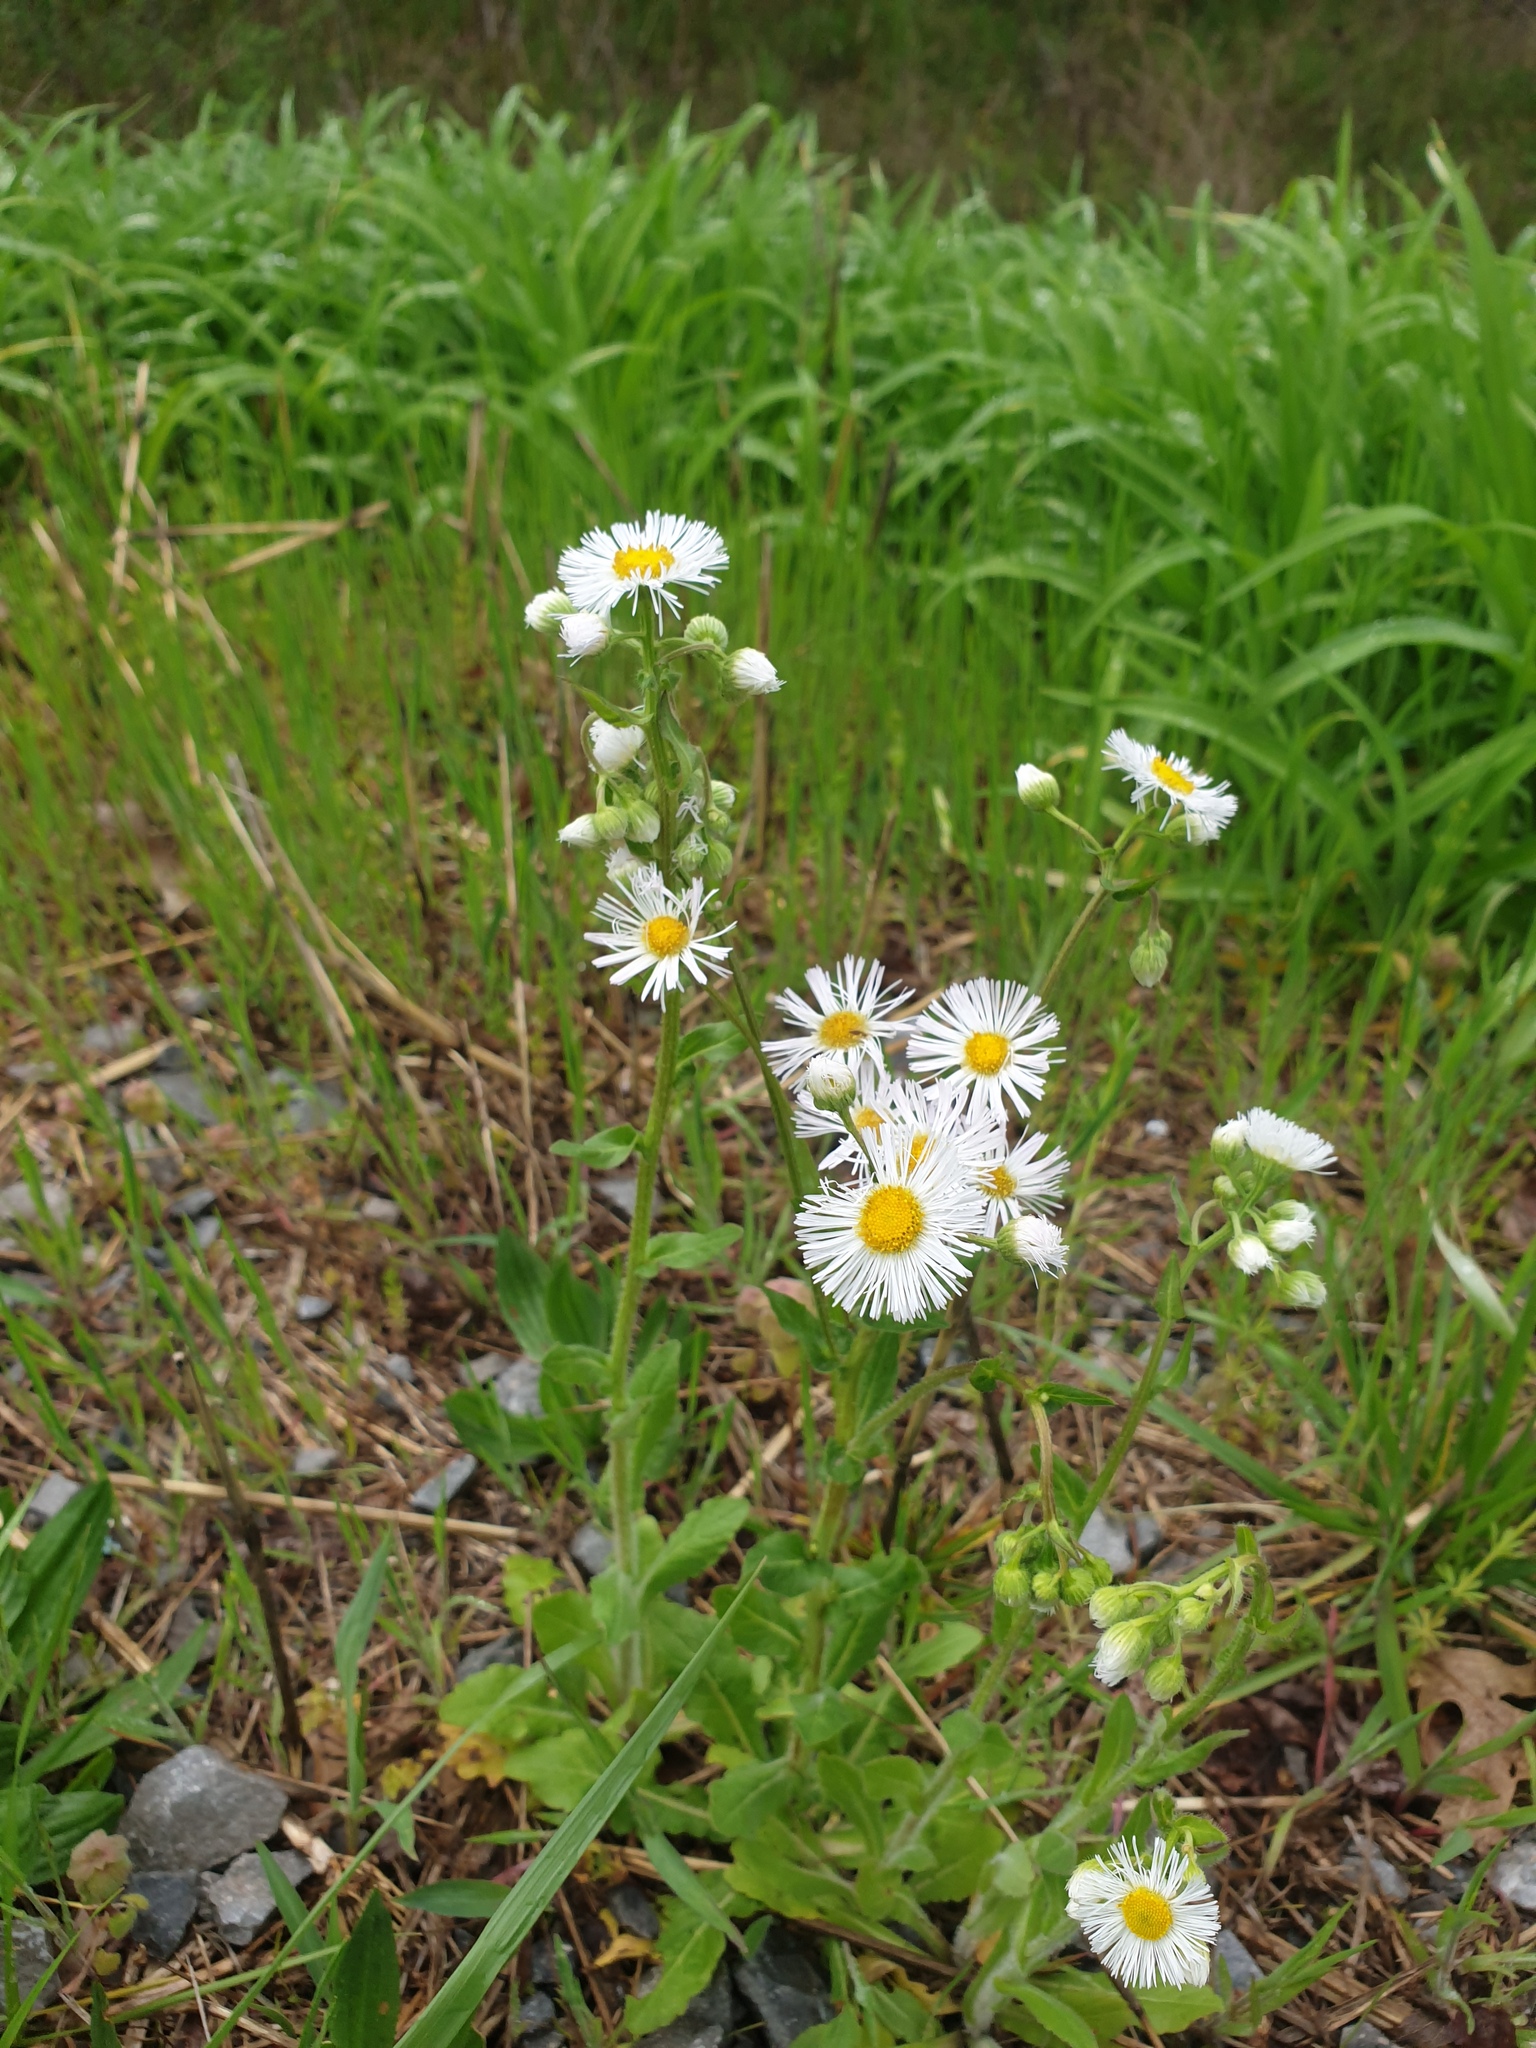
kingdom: Plantae
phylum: Tracheophyta
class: Magnoliopsida
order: Asterales
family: Asteraceae
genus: Erigeron
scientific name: Erigeron philadelphicus
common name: Robin's-plantain
